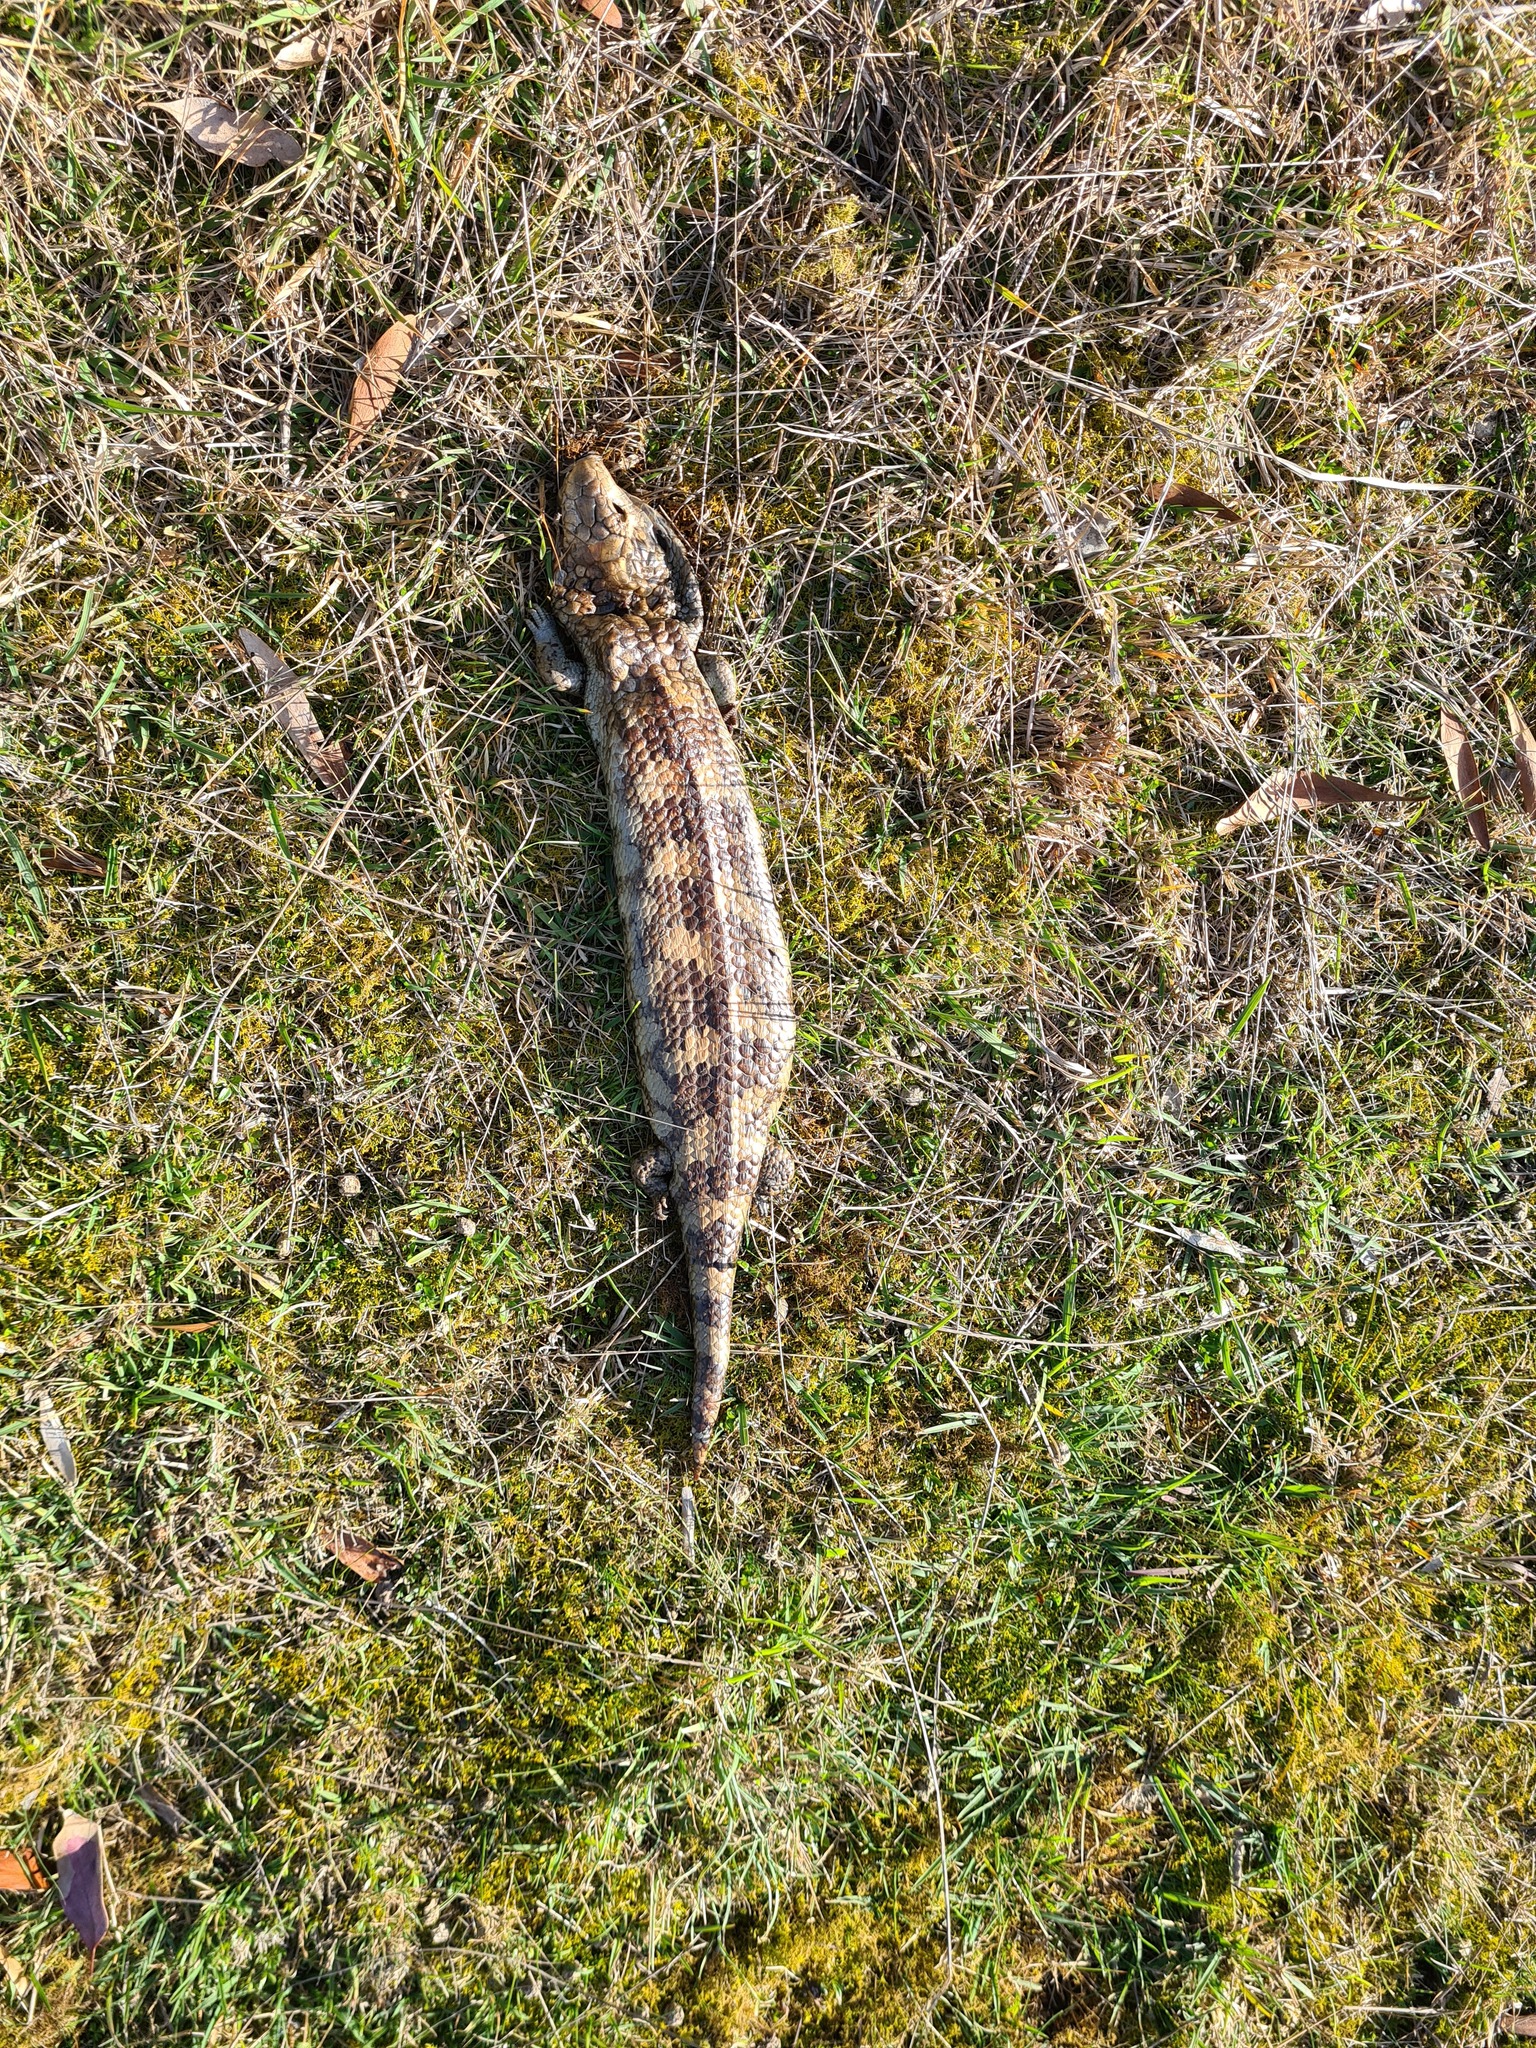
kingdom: Animalia
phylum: Chordata
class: Squamata
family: Scincidae
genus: Tiliqua
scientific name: Tiliqua nigrolutea
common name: Blotched blue-tongued lizard
